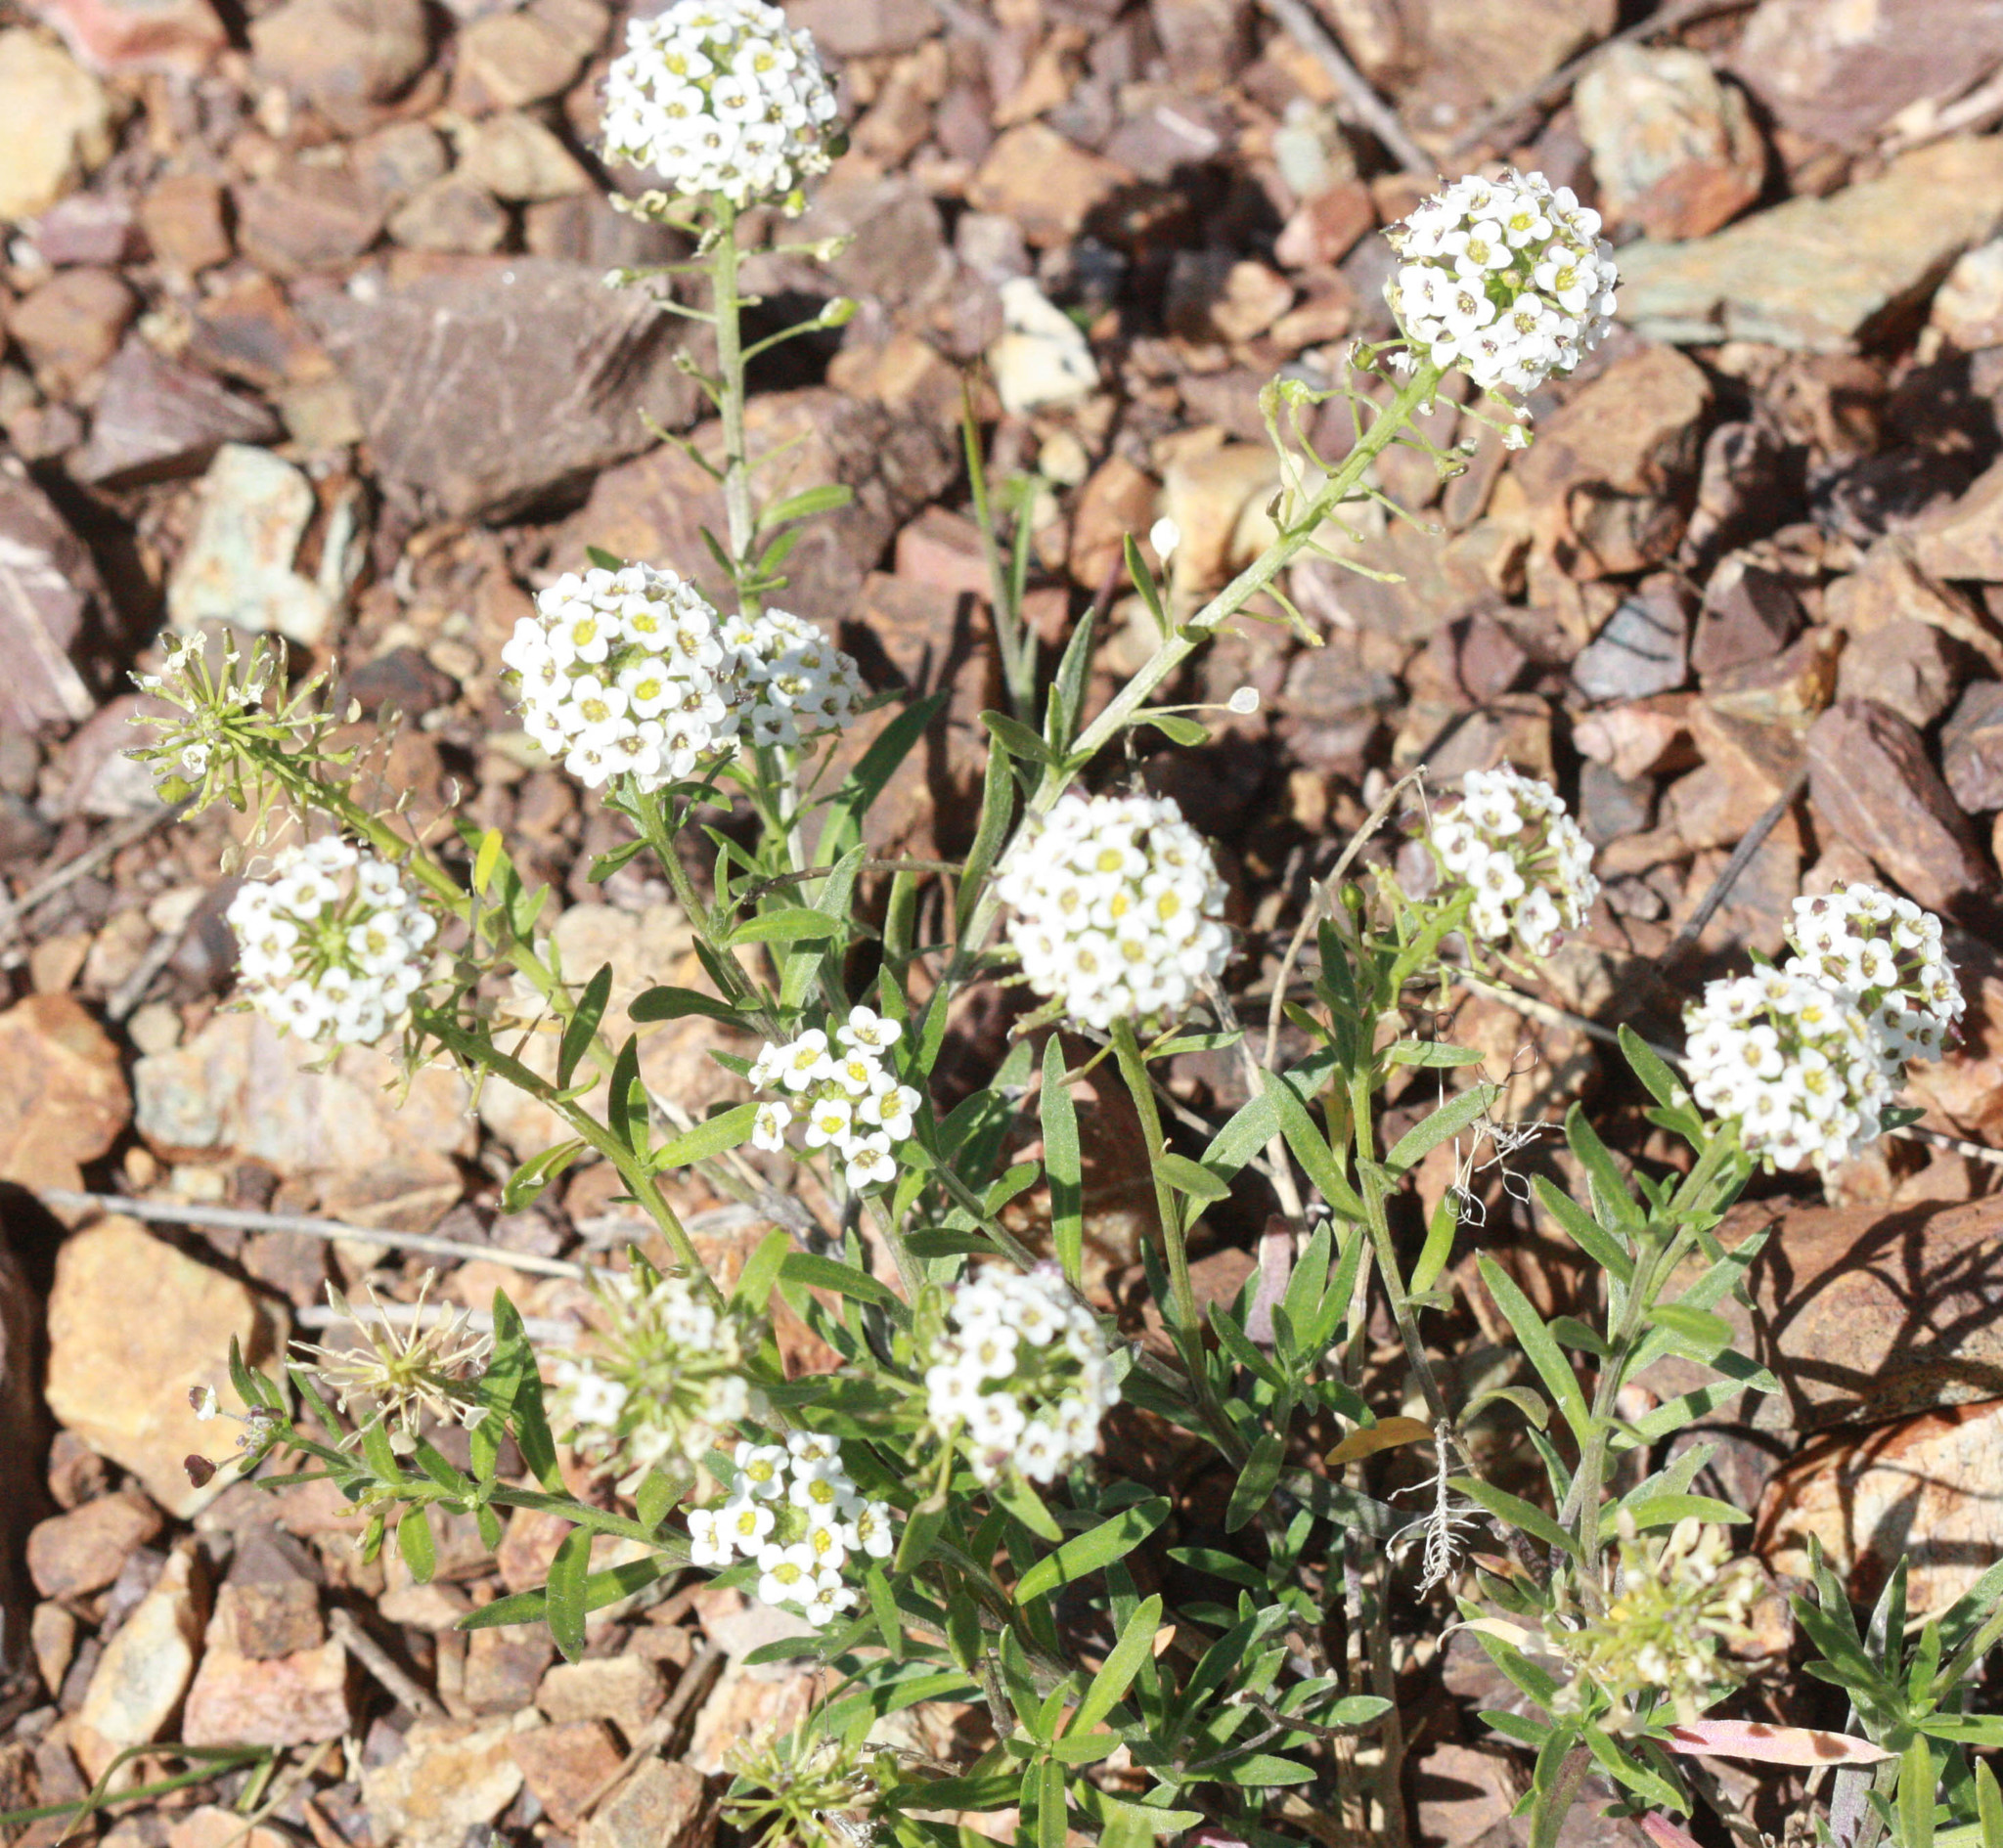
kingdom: Plantae
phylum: Tracheophyta
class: Magnoliopsida
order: Brassicales
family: Brassicaceae
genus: Lobularia
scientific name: Lobularia maritima
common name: Sweet alison
